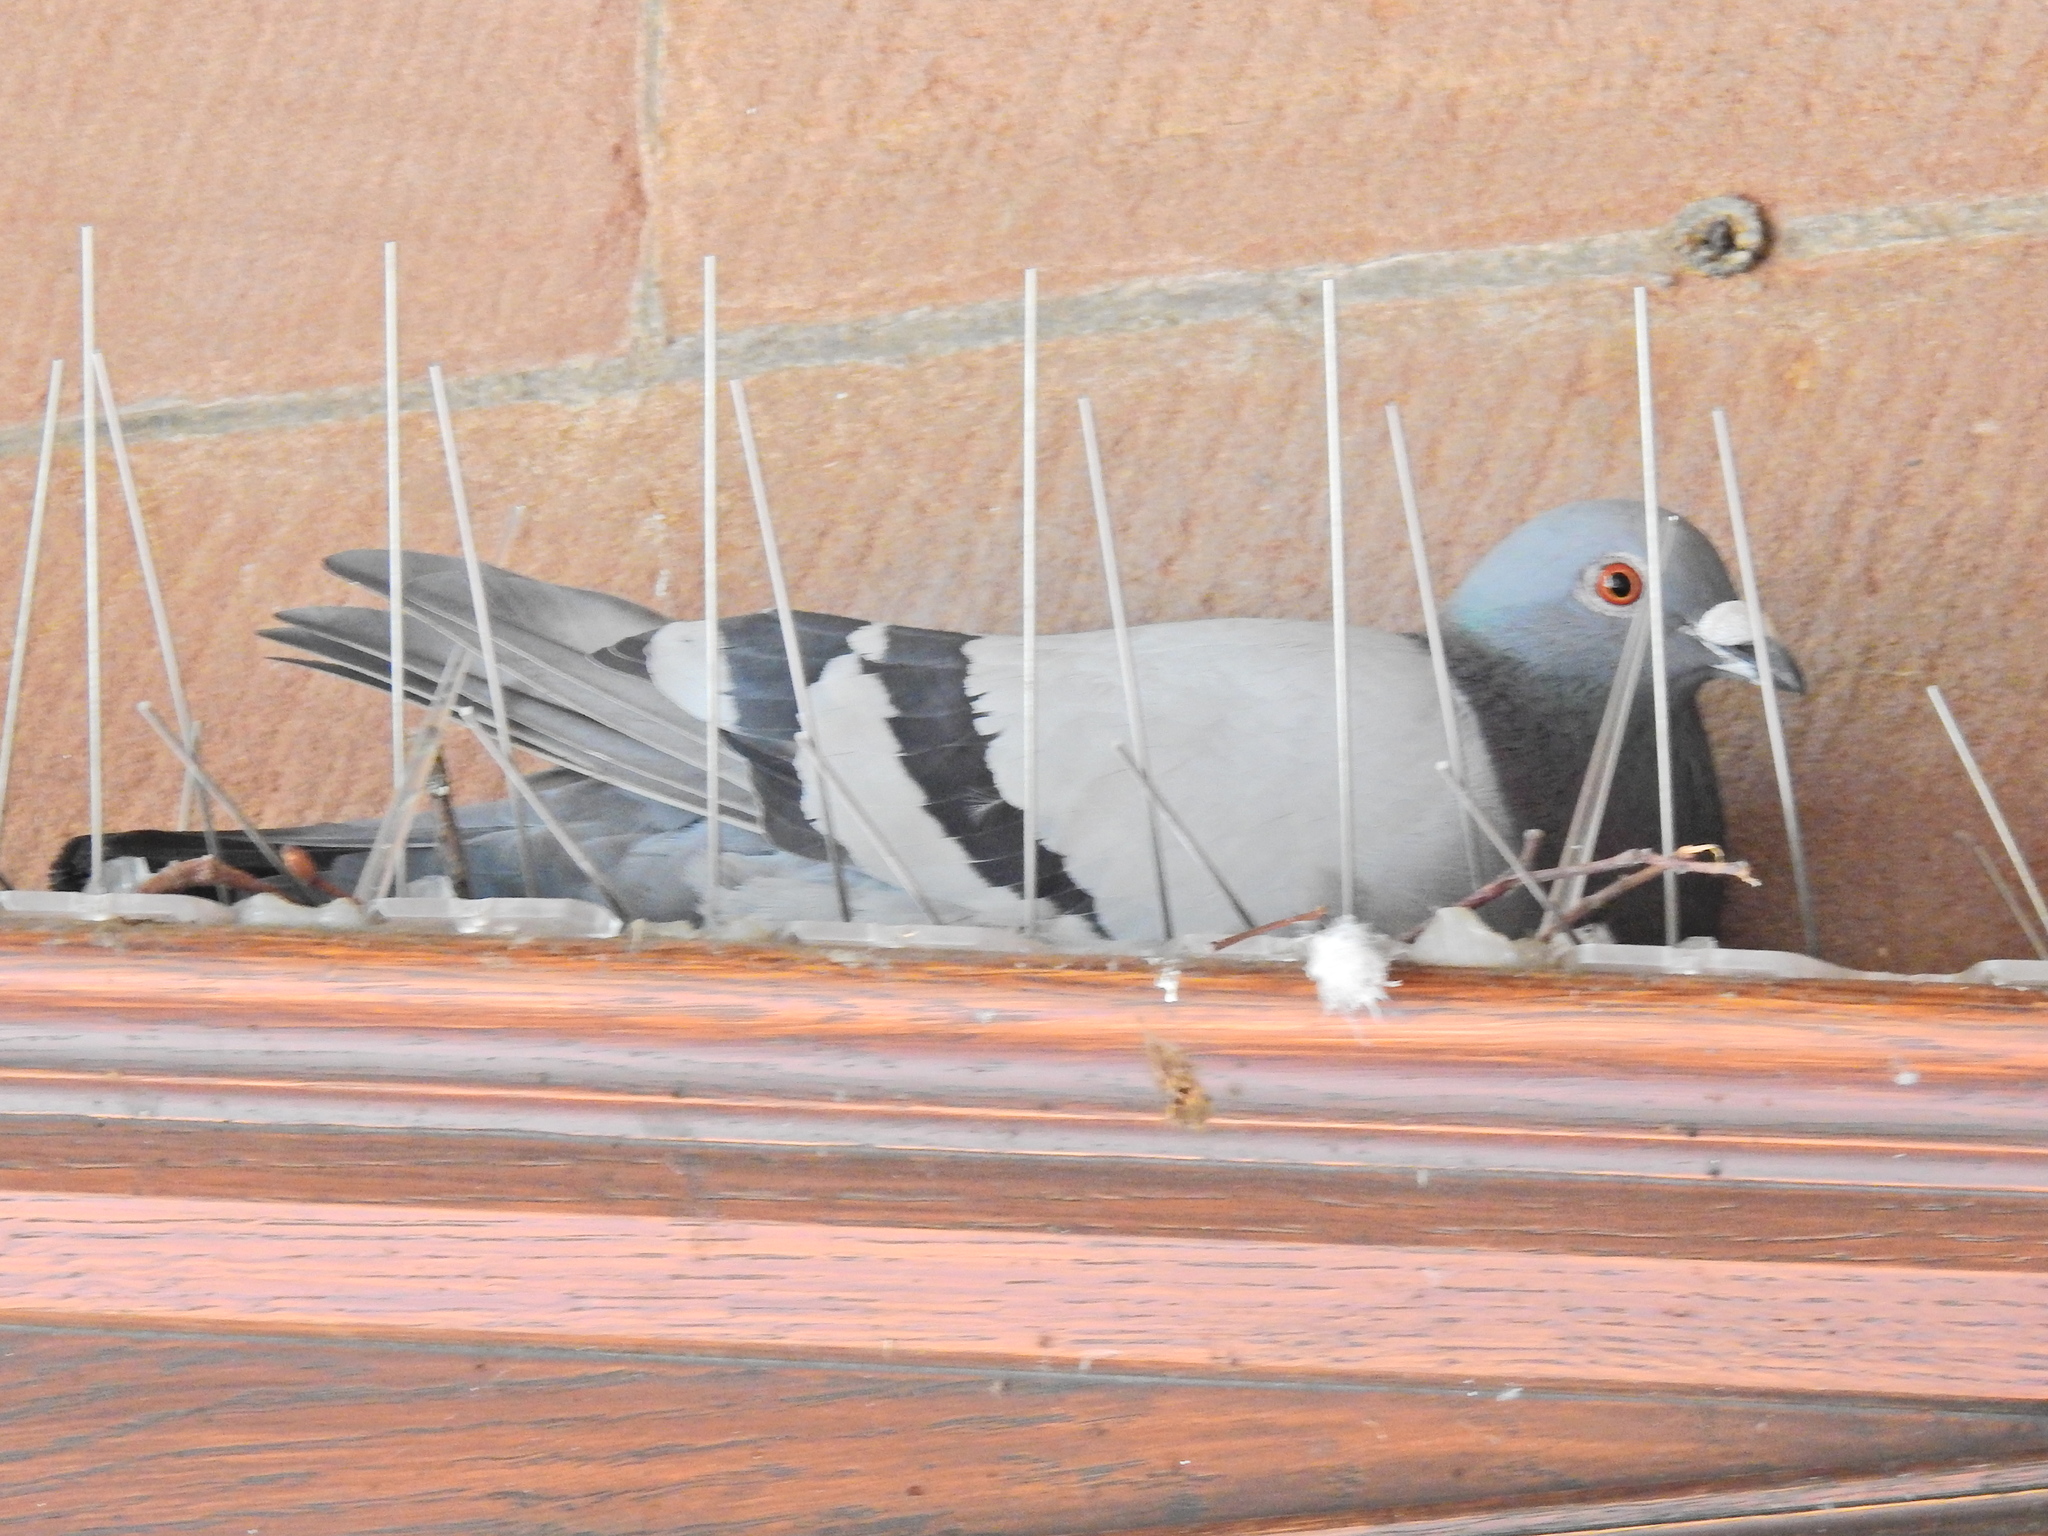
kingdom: Animalia
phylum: Chordata
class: Aves
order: Columbiformes
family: Columbidae
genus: Columba
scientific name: Columba livia
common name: Rock pigeon
